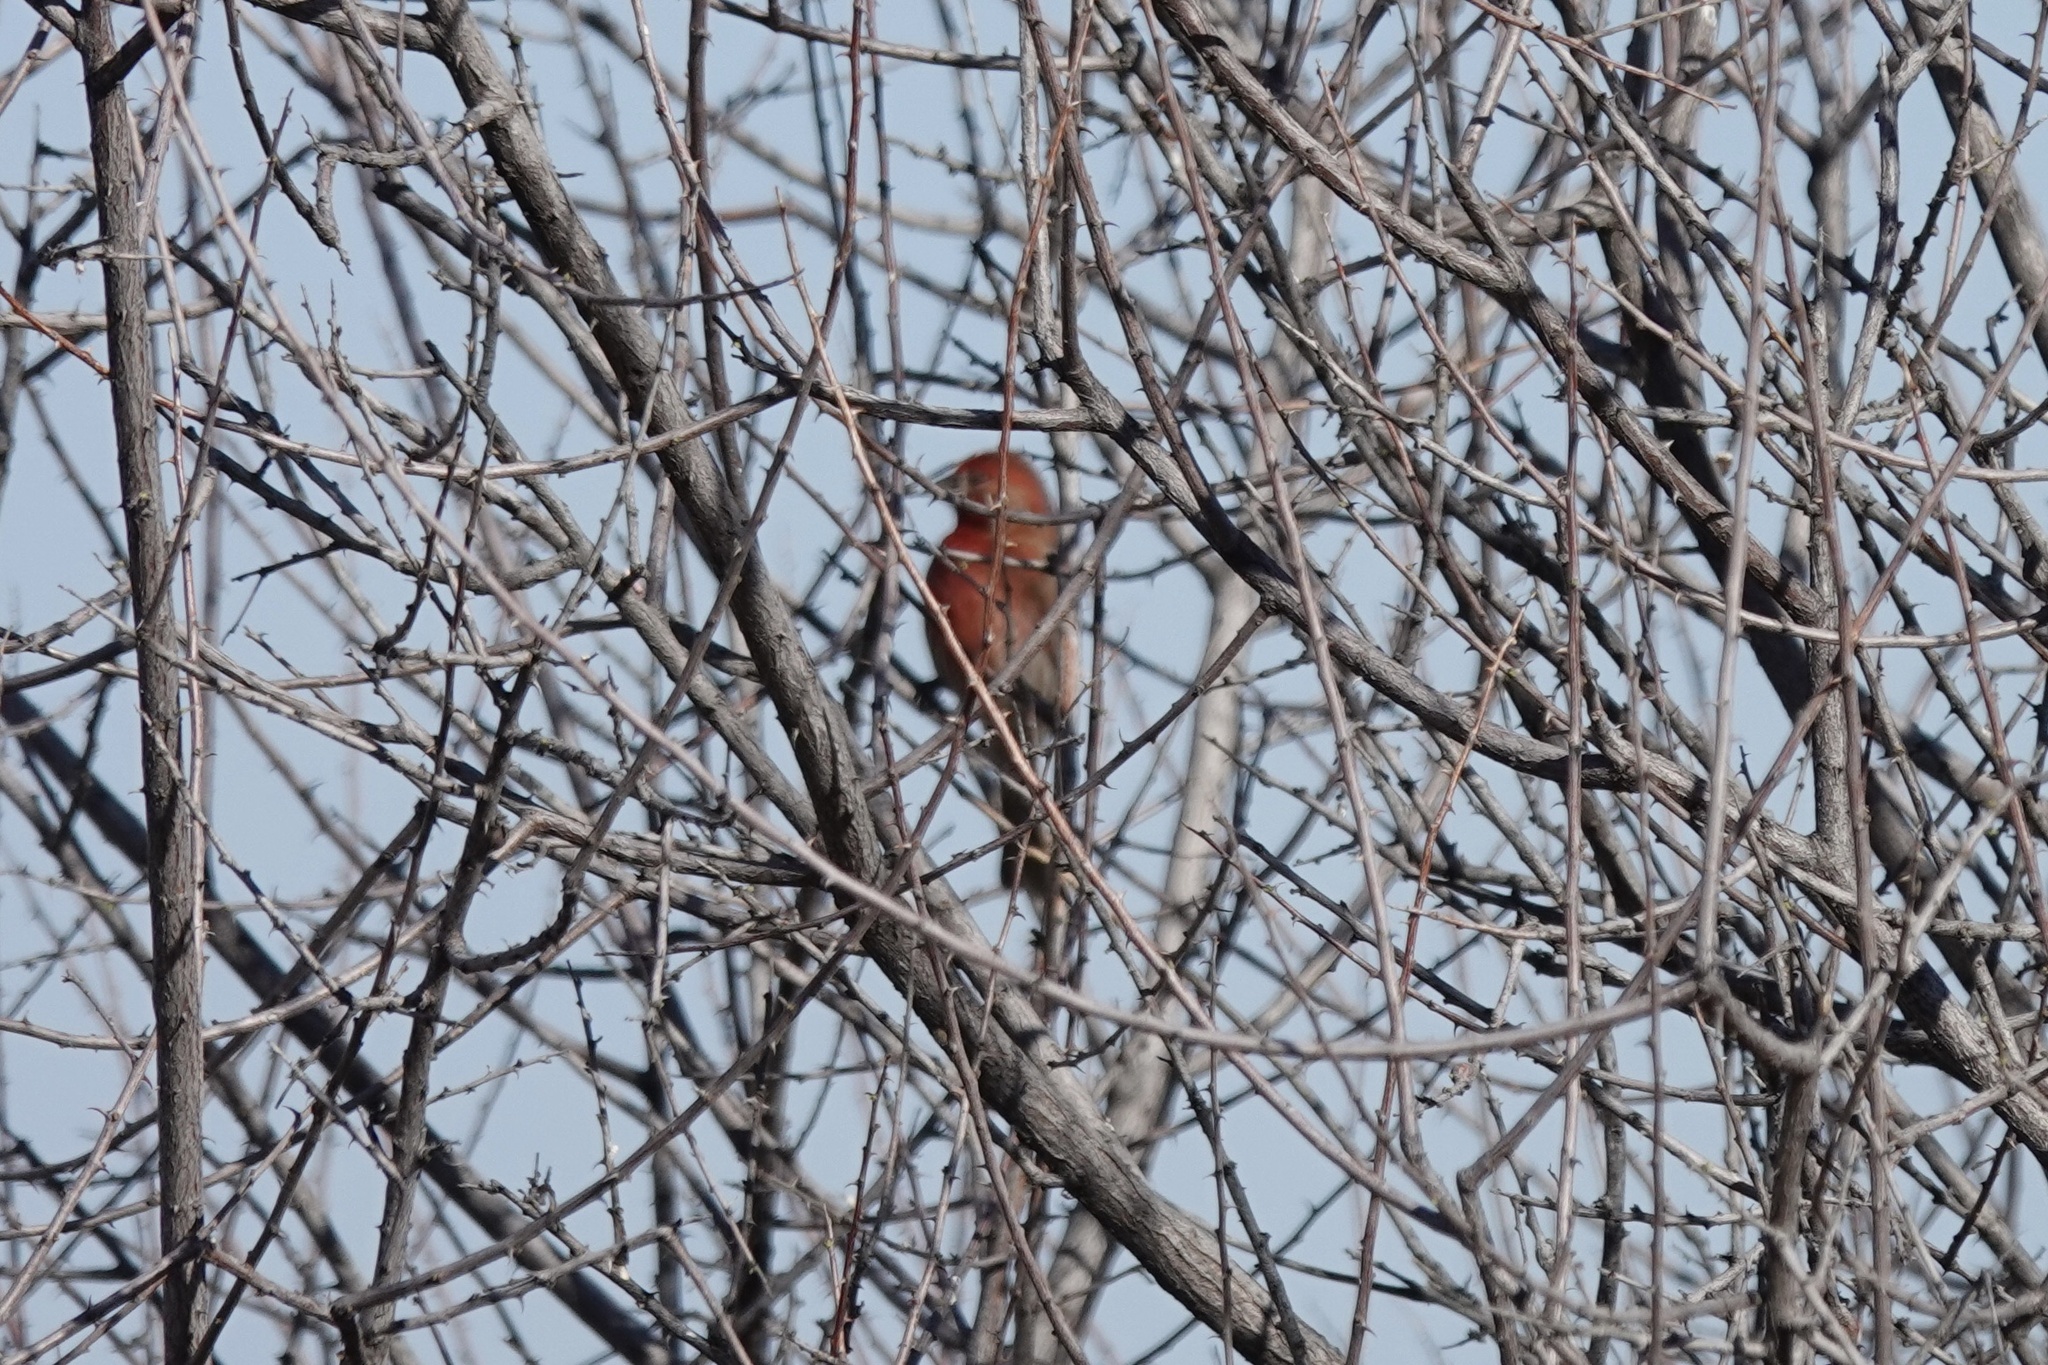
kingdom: Animalia
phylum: Chordata
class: Aves
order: Passeriformes
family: Fringillidae
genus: Haemorhous
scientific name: Haemorhous mexicanus
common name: House finch
